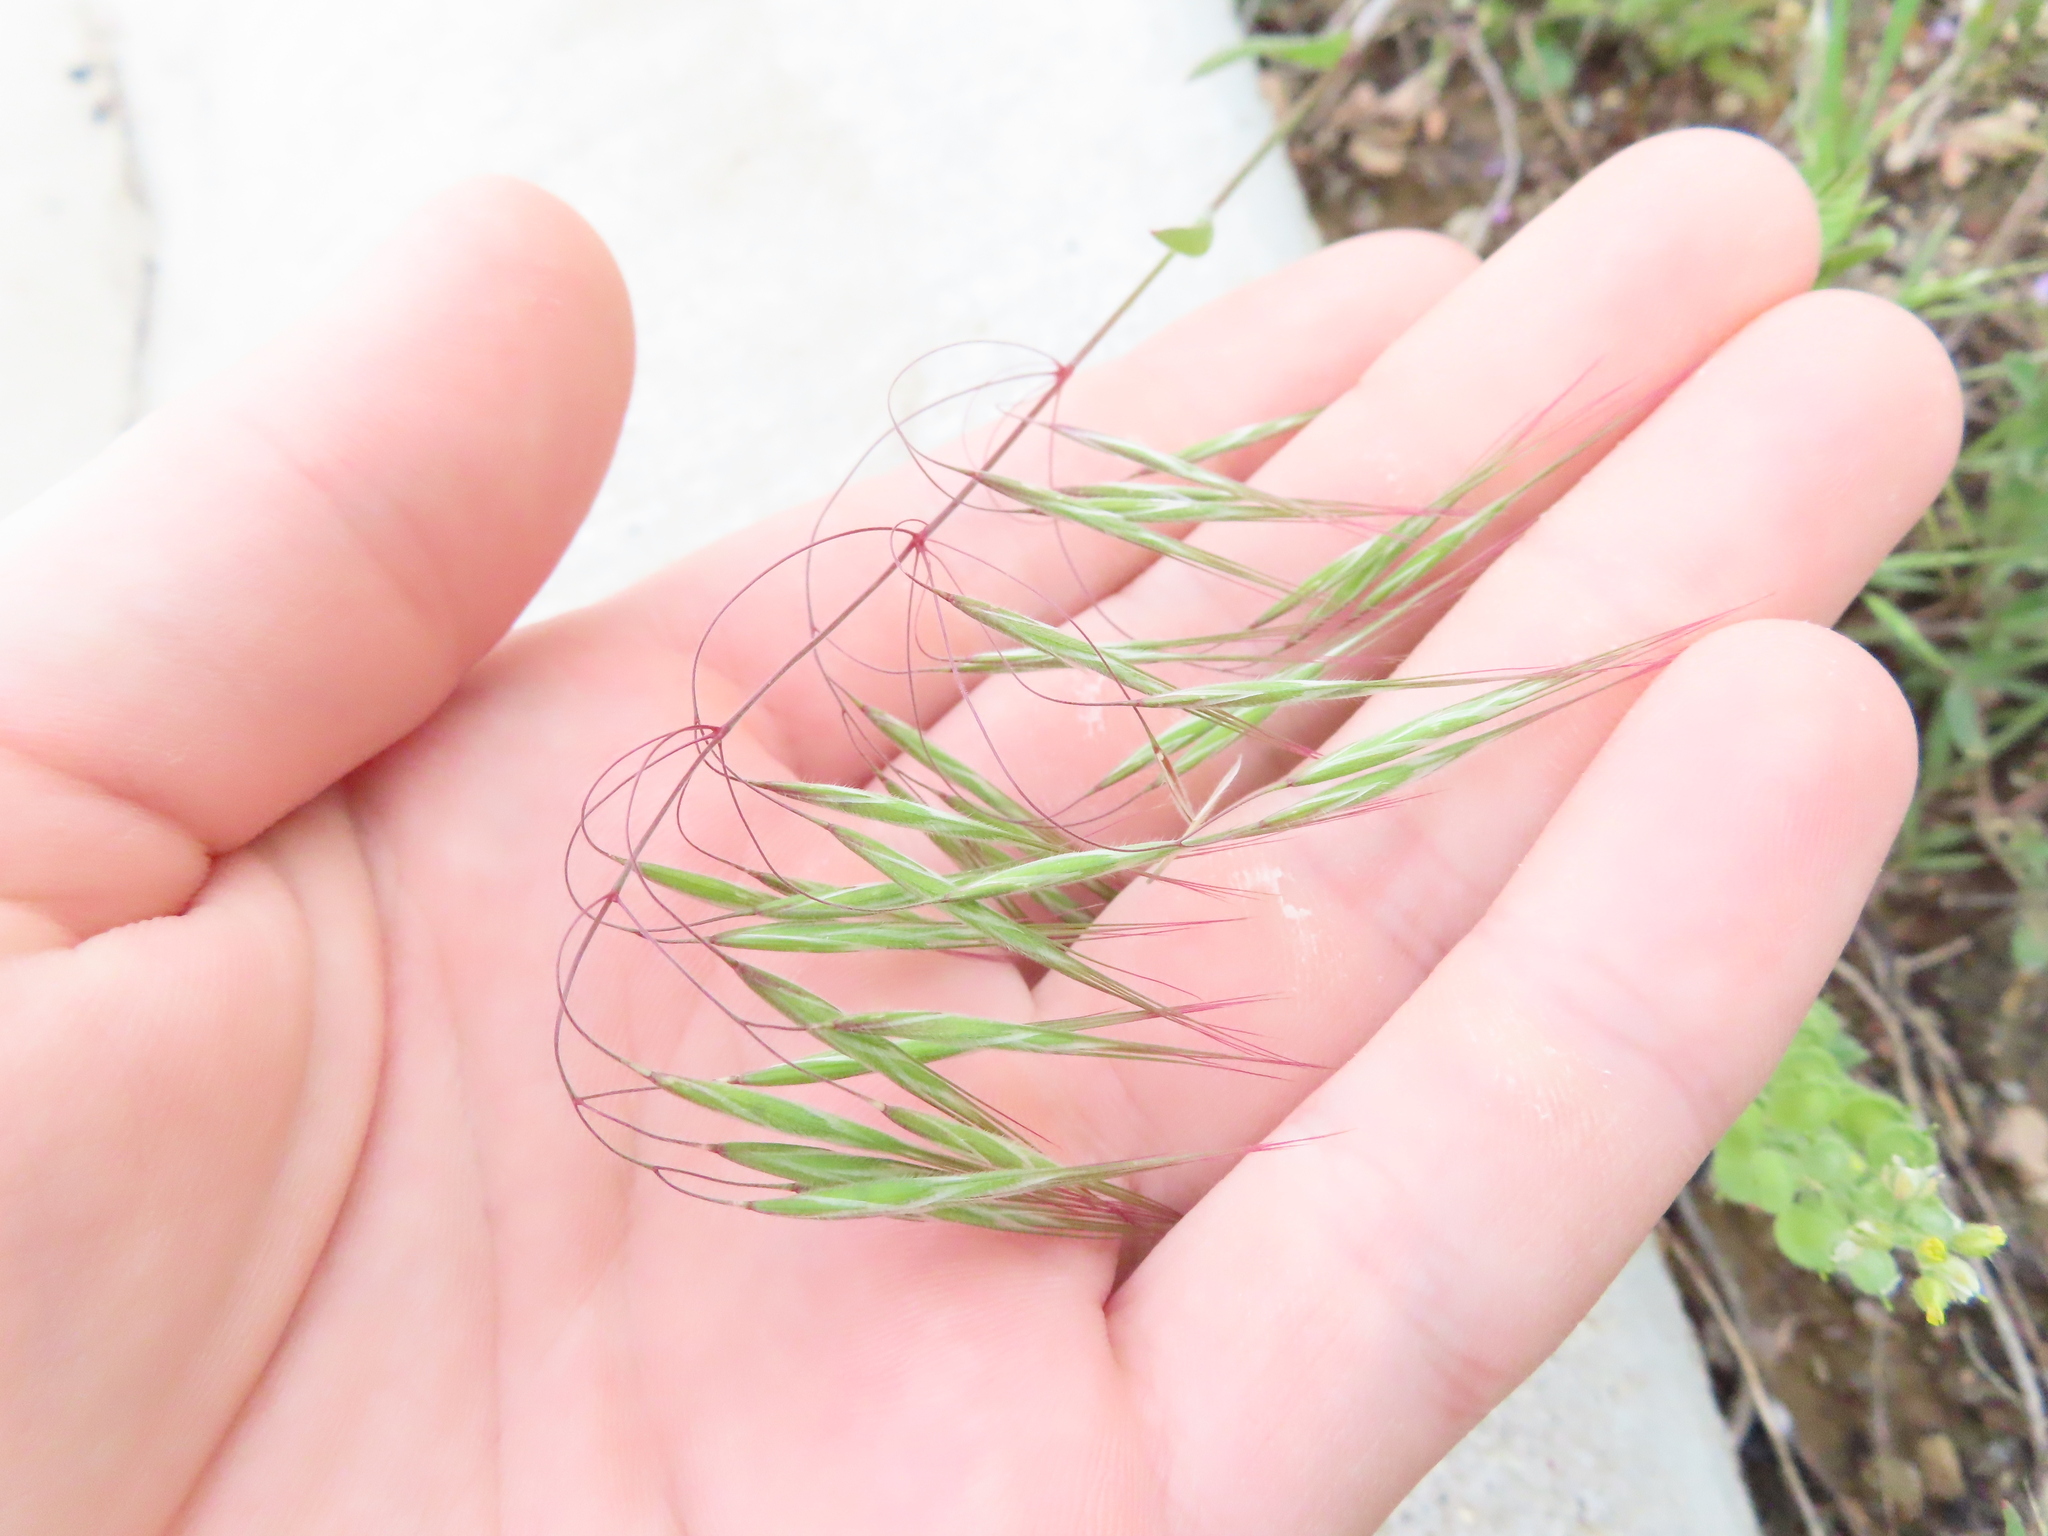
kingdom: Plantae
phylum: Tracheophyta
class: Liliopsida
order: Poales
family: Poaceae
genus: Bromus
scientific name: Bromus tectorum
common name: Cheatgrass
